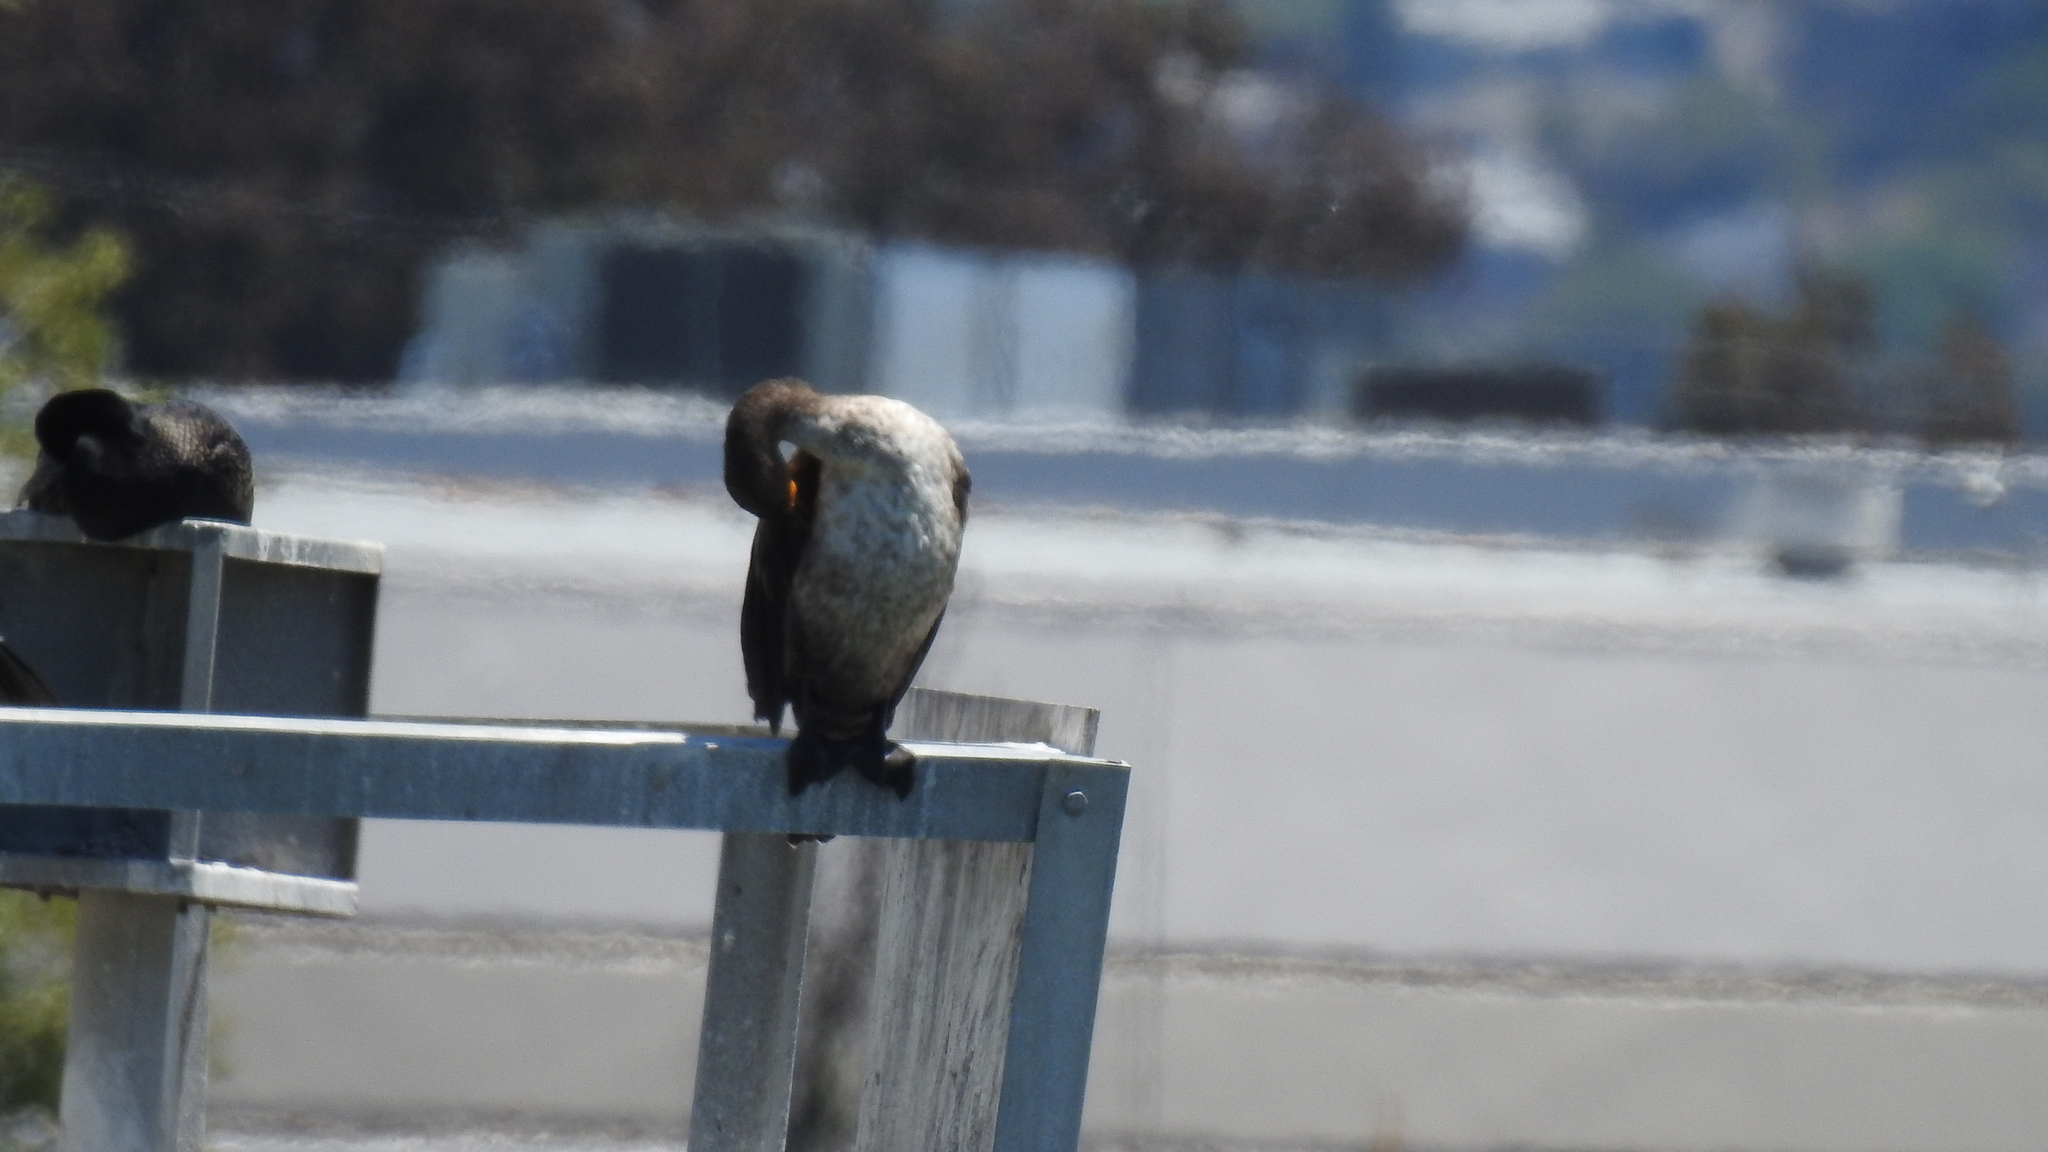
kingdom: Animalia
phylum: Chordata
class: Aves
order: Suliformes
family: Phalacrocoracidae
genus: Phalacrocorax
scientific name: Phalacrocorax auritus
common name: Double-crested cormorant
